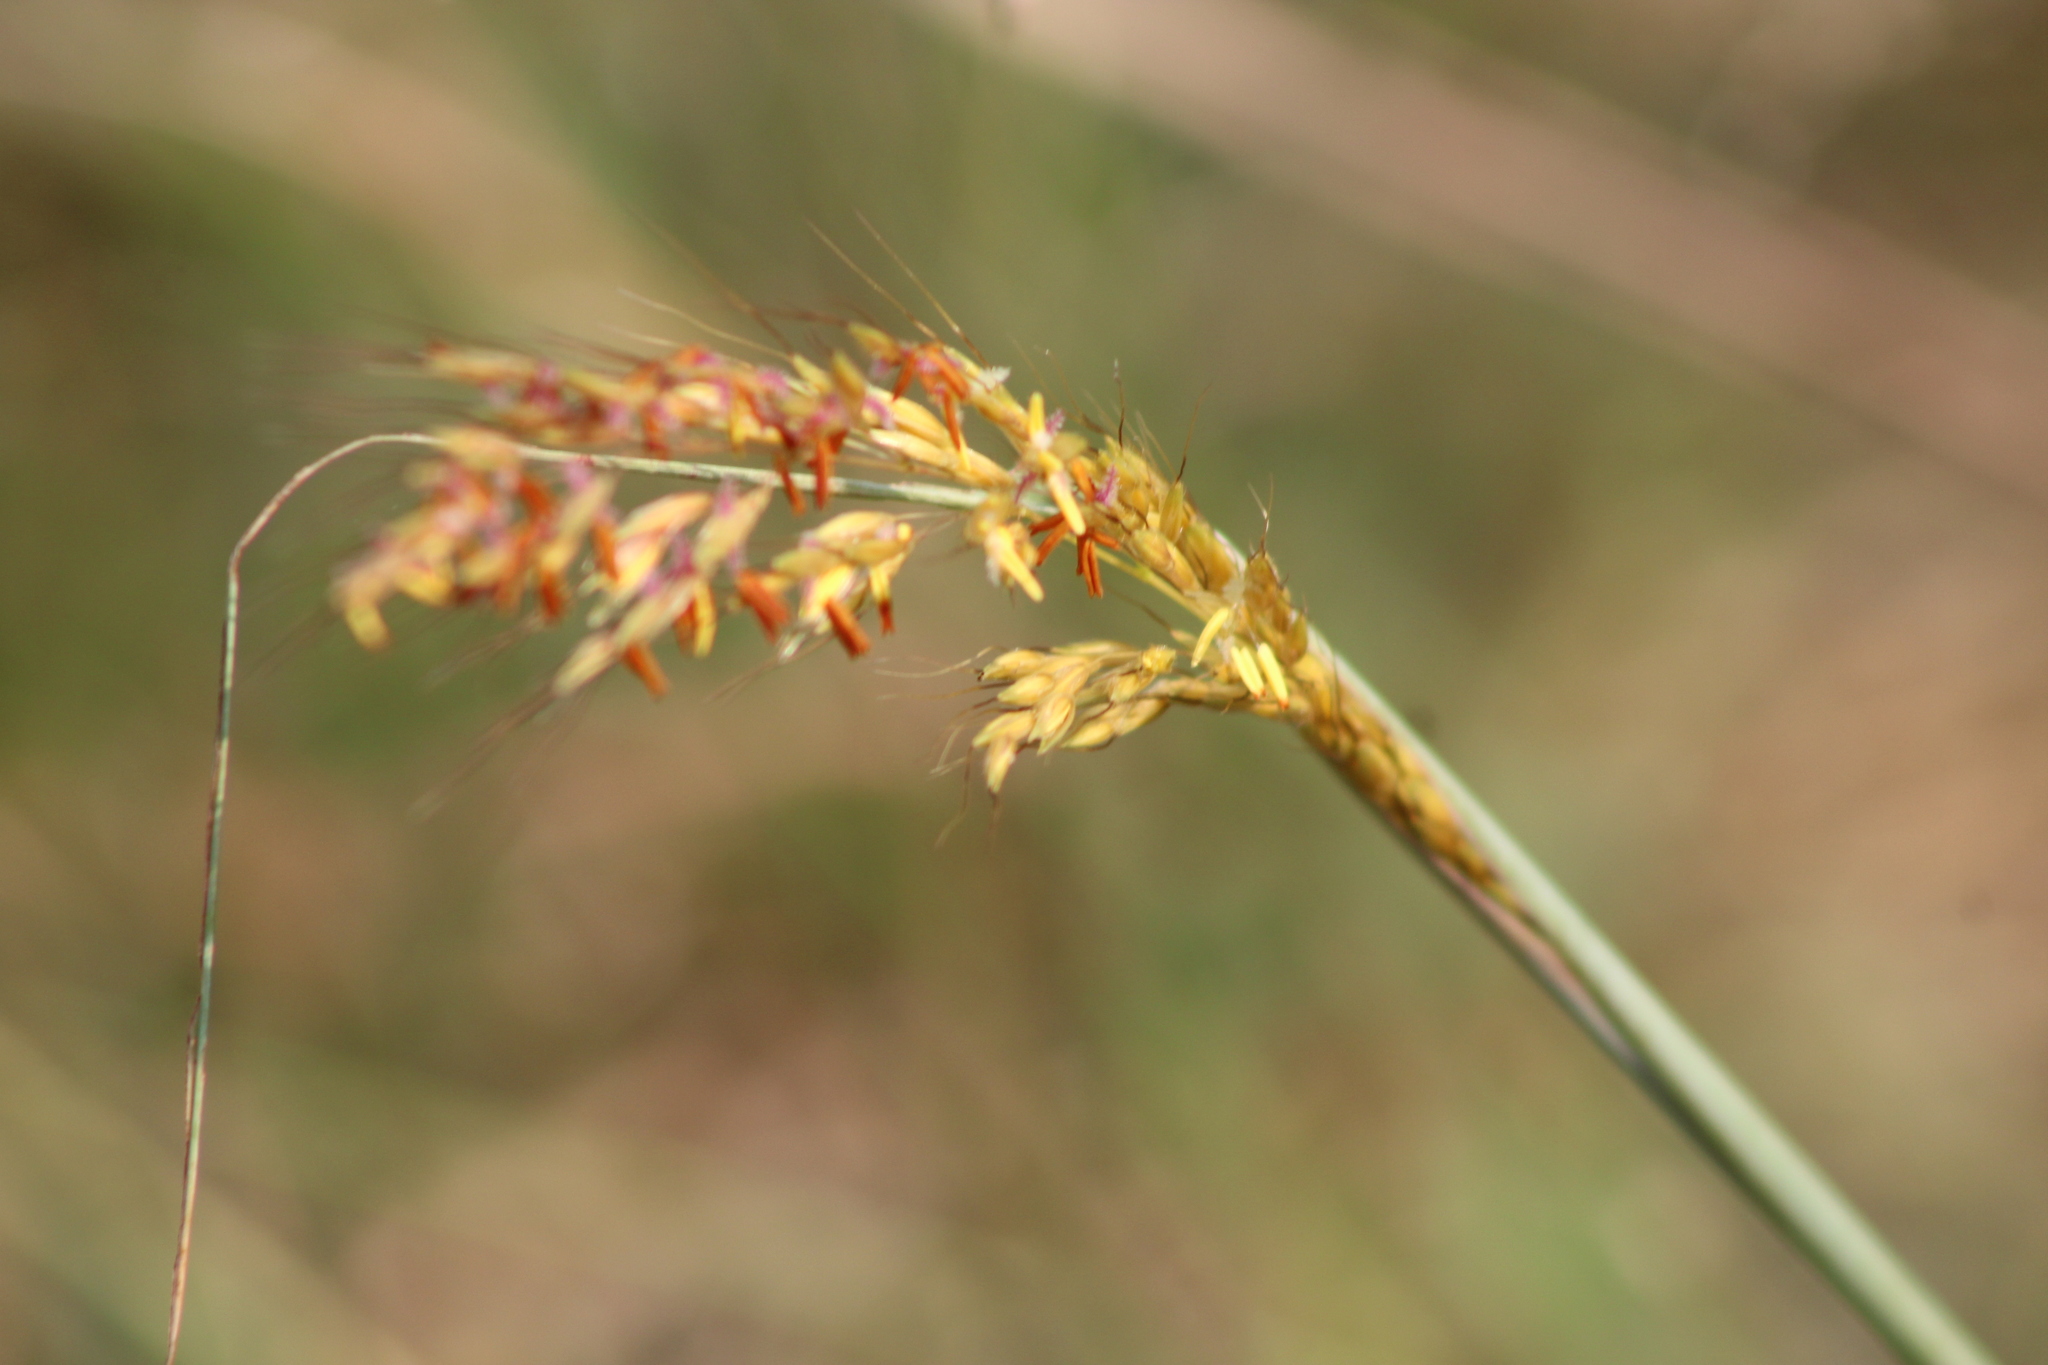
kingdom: Plantae
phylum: Tracheophyta
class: Liliopsida
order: Poales
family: Poaceae
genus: Sorghastrum
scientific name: Sorghastrum nutans
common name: Indian grass
